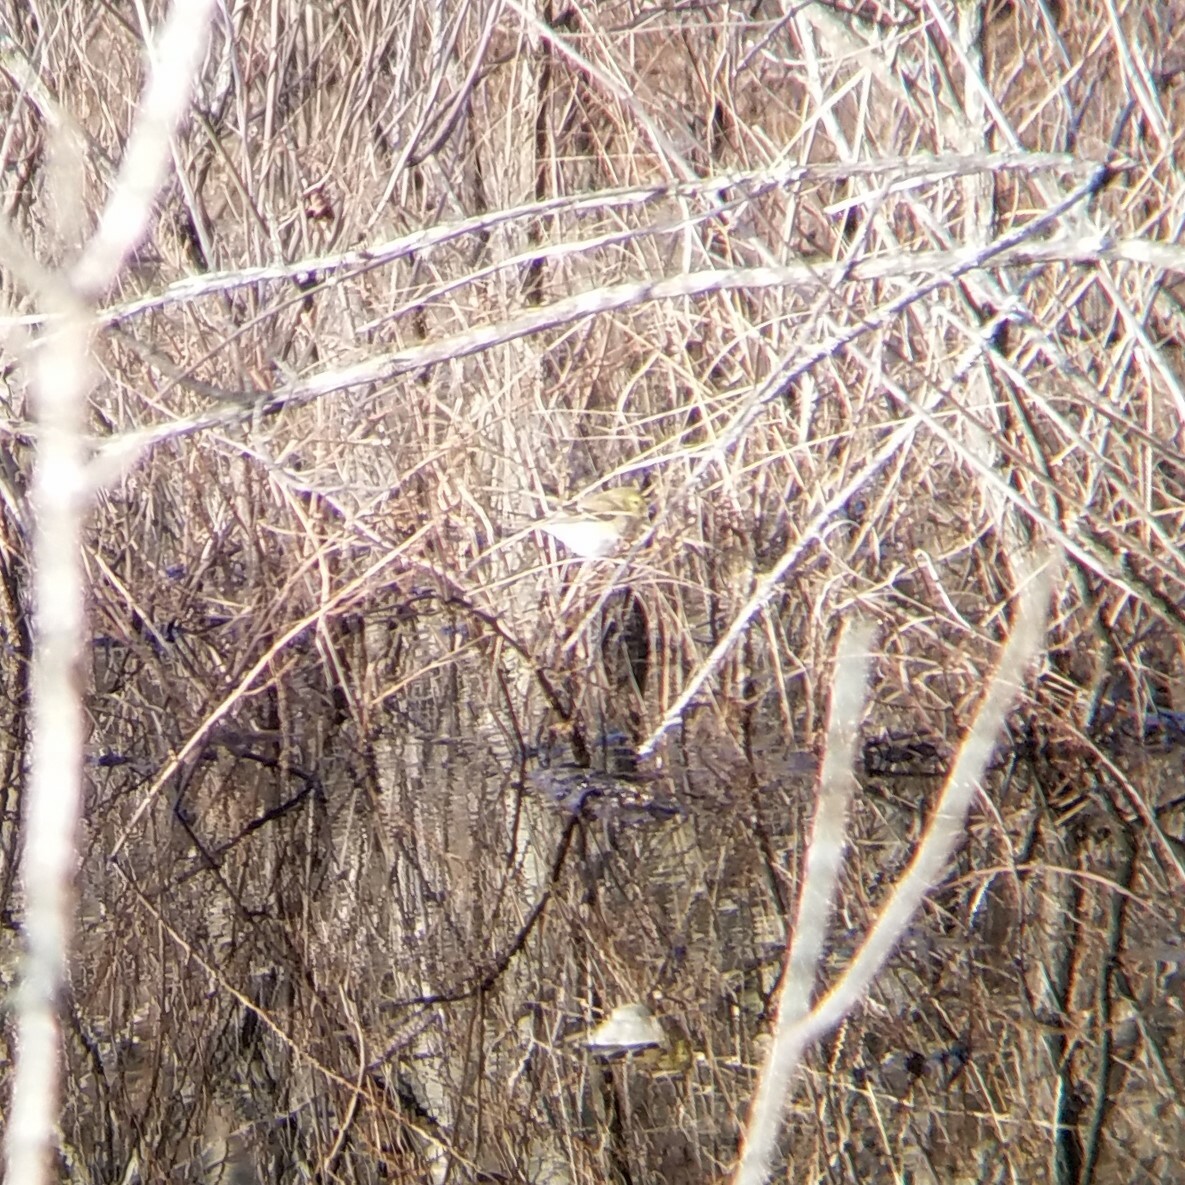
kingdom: Animalia
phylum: Chordata
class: Aves
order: Passeriformes
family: Fringillidae
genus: Spinus
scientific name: Spinus tristis
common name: American goldfinch
